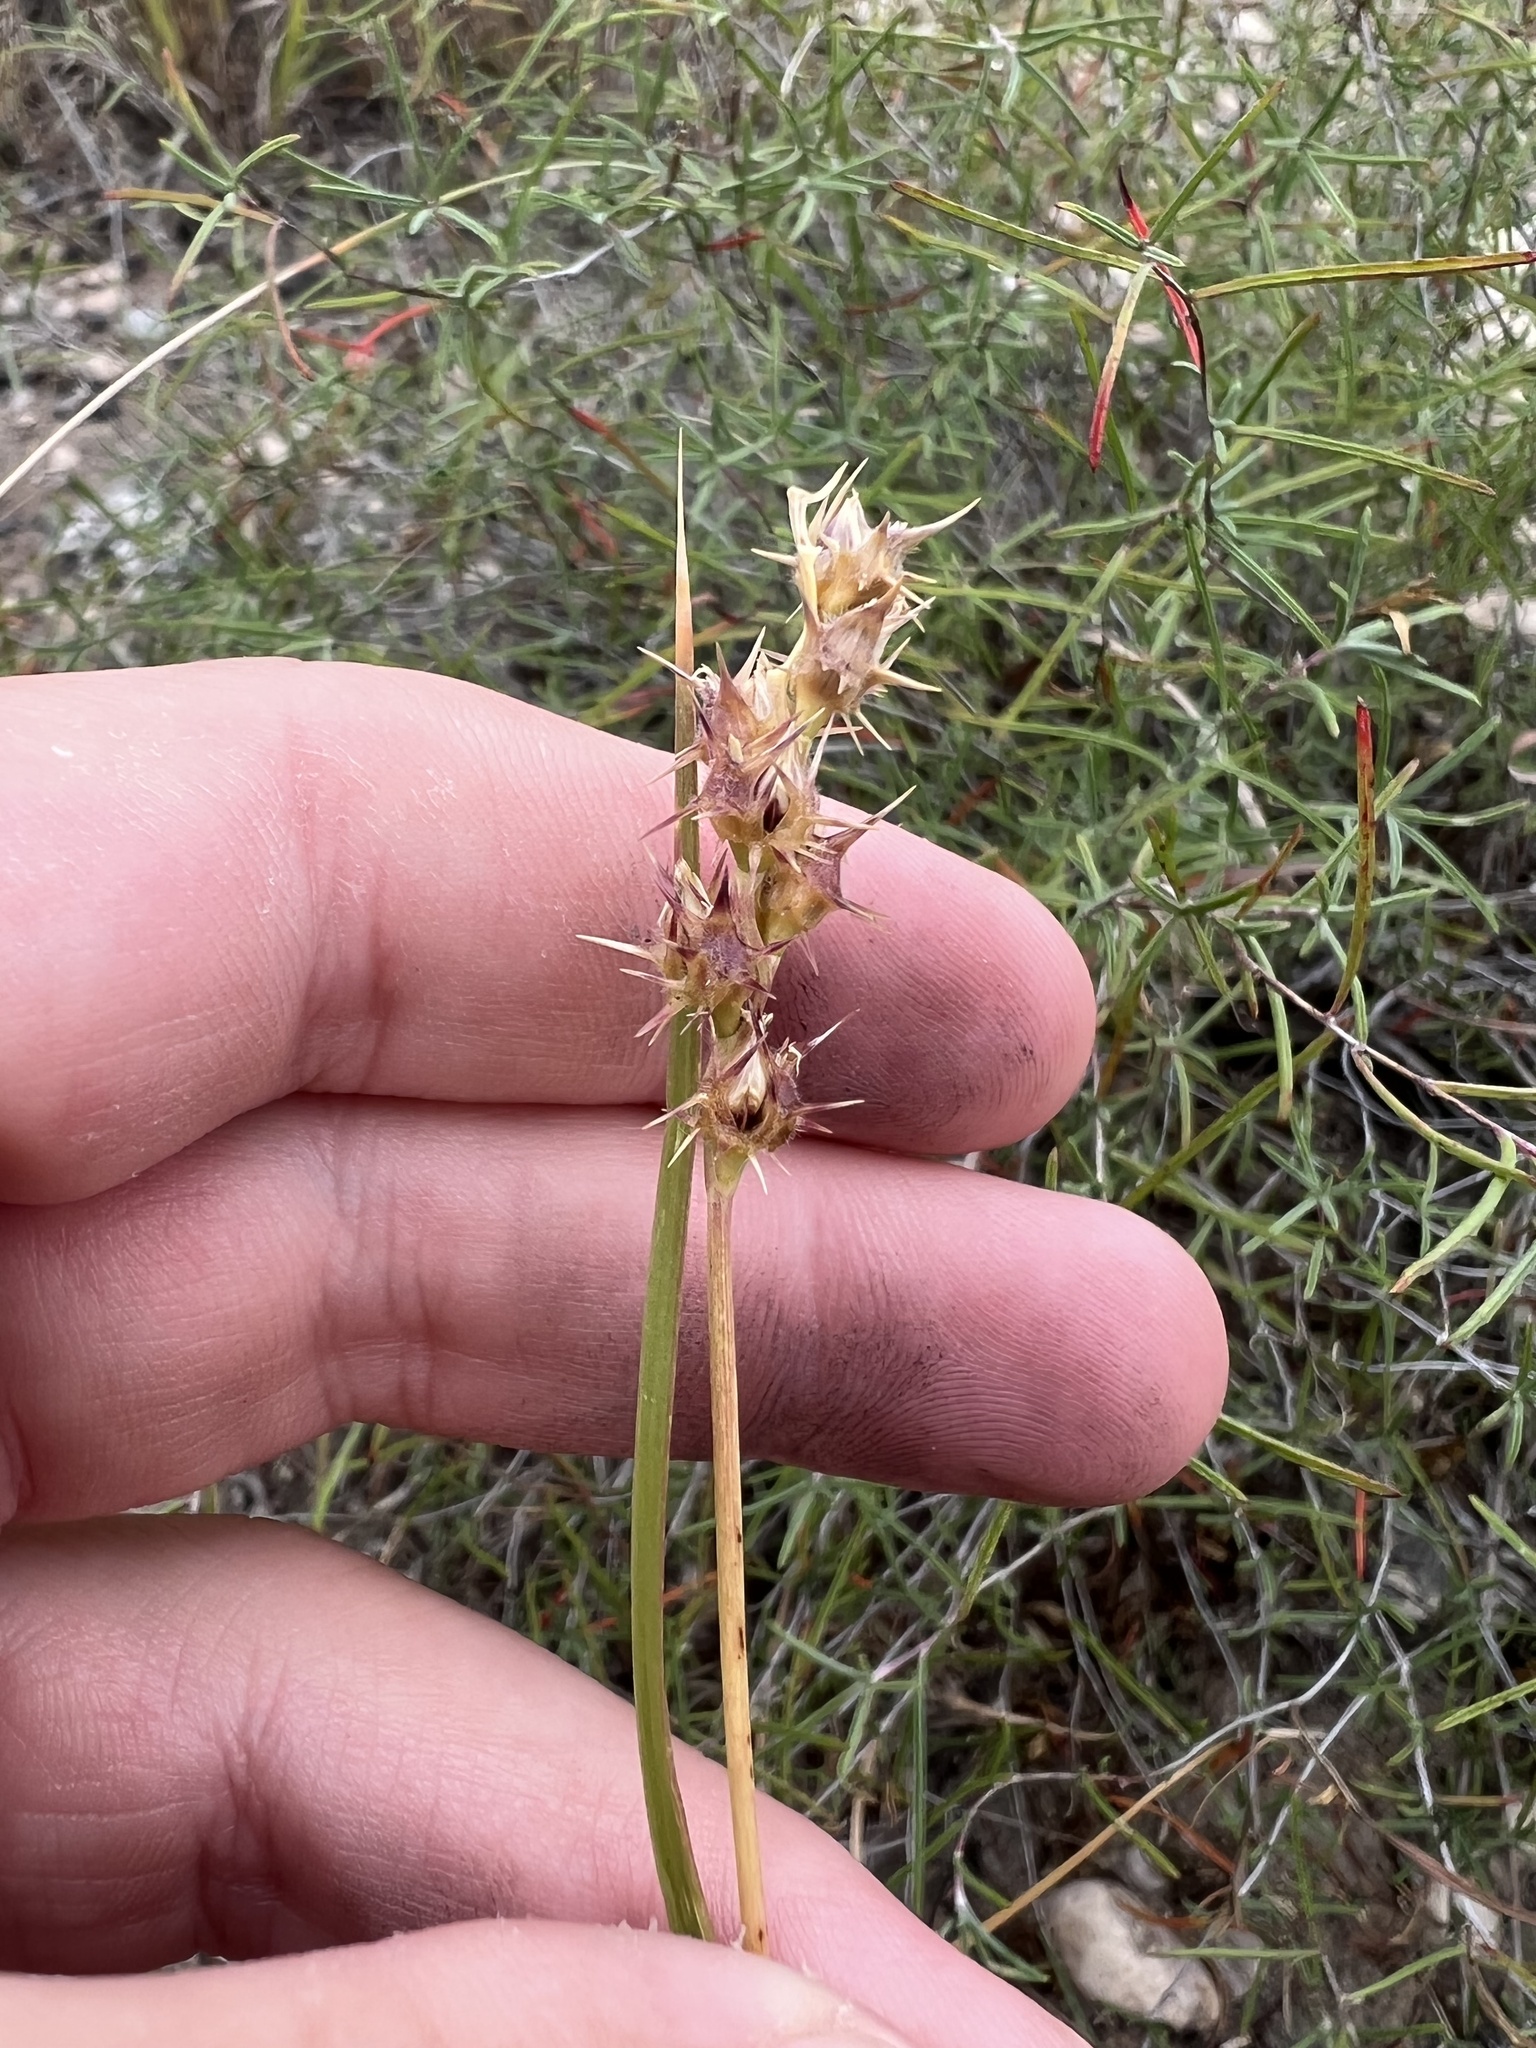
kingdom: Plantae
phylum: Tracheophyta
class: Liliopsida
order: Poales
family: Poaceae
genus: Cenchrus
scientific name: Cenchrus spinifex
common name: Coast sandbur
